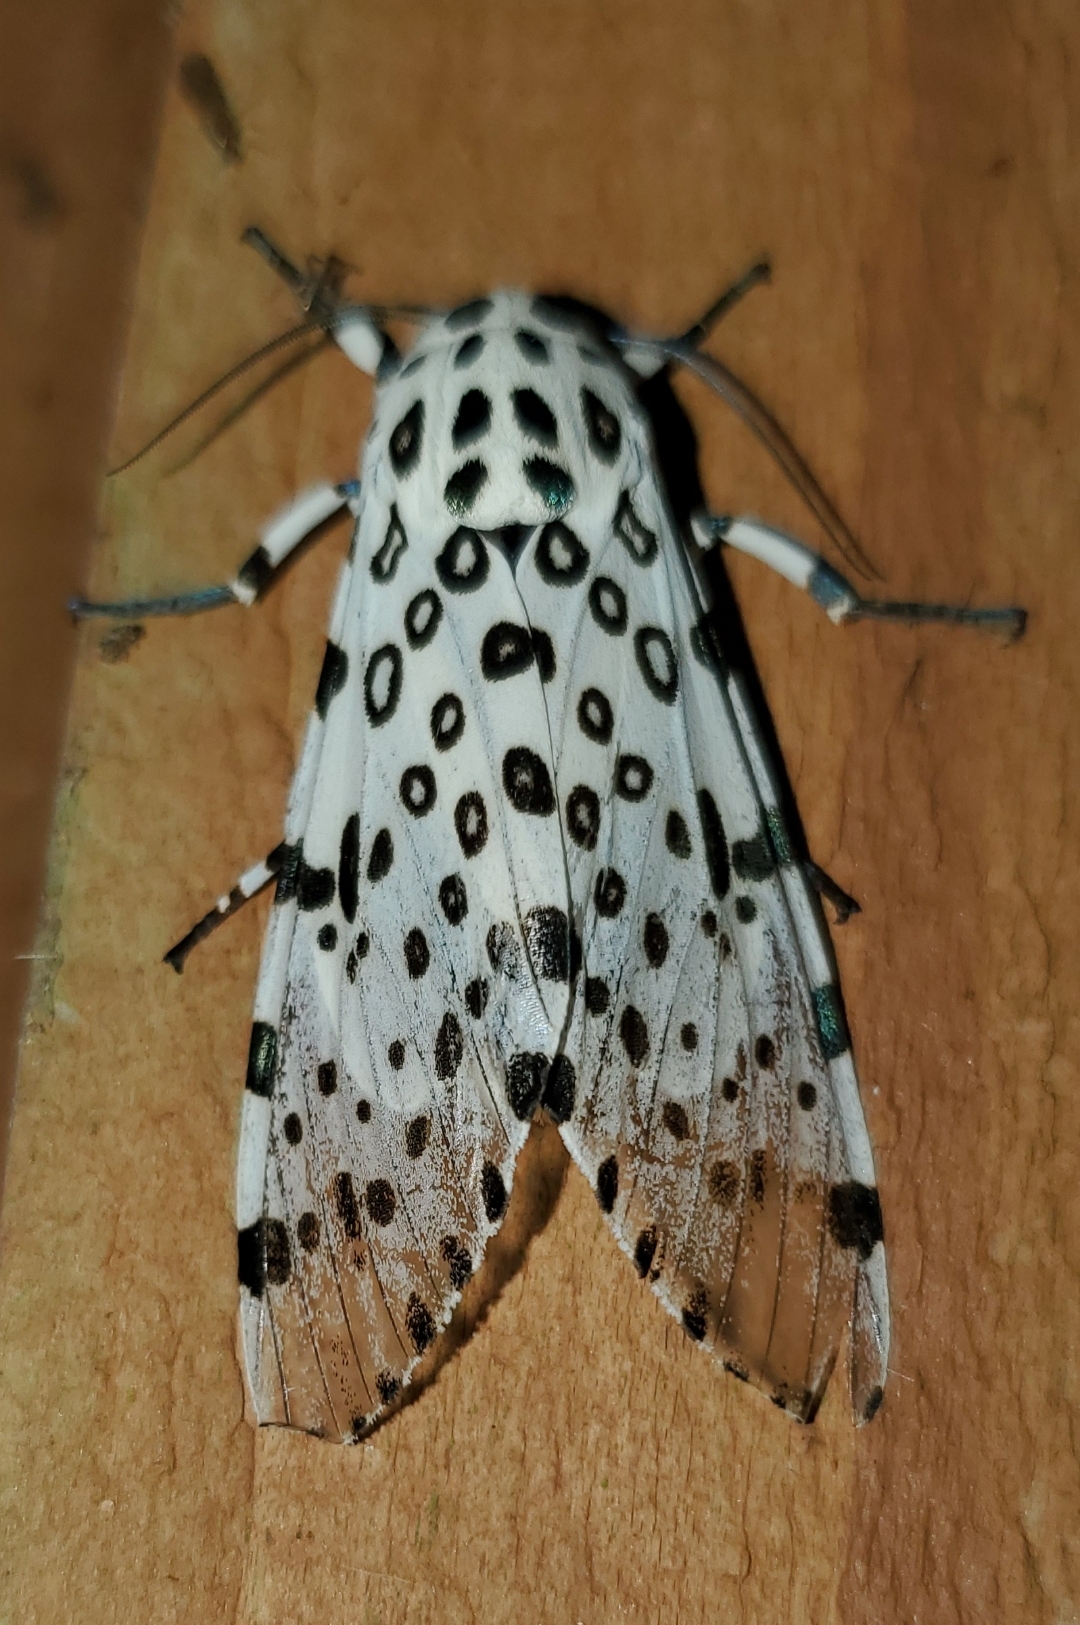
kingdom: Animalia
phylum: Arthropoda
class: Insecta
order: Lepidoptera
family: Erebidae
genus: Hypercompe
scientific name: Hypercompe scribonia
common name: Giant leopard moth
